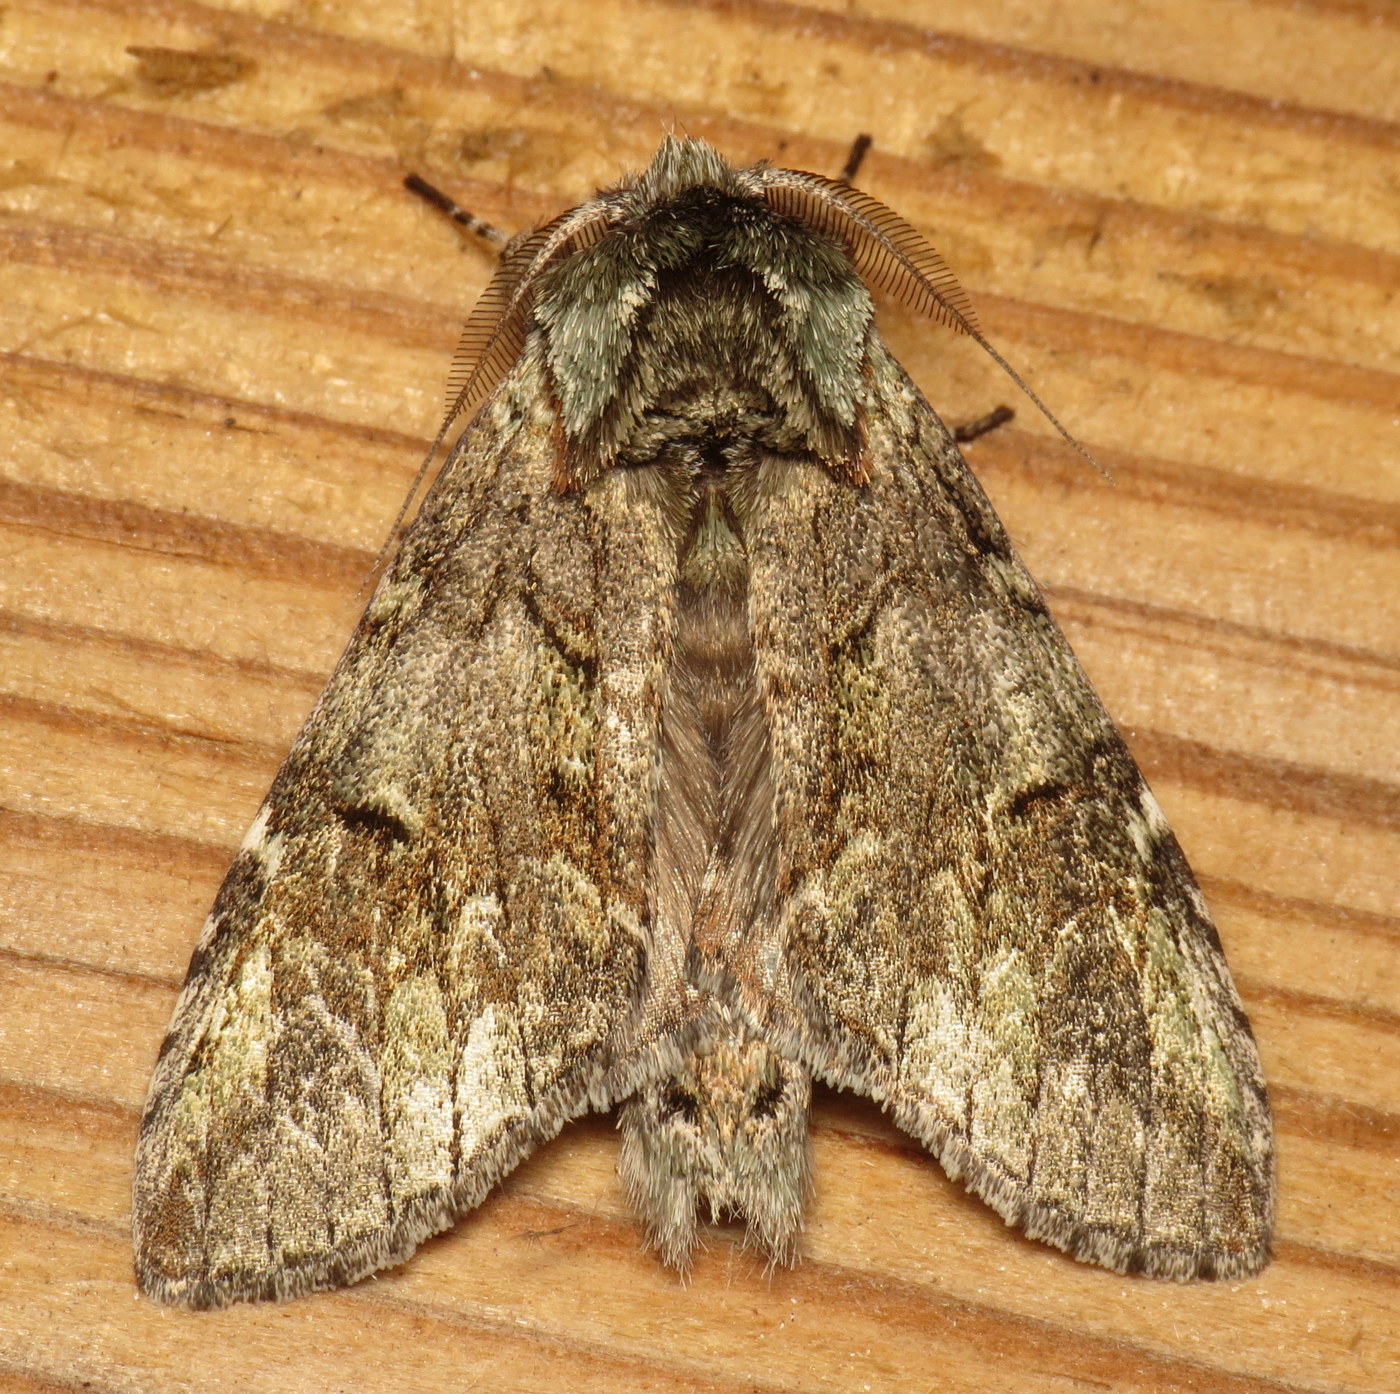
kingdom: Animalia
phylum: Arthropoda
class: Insecta
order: Lepidoptera
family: Notodontidae
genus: Macrurocampa
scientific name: Macrurocampa marthesia
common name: Mottled prominent
